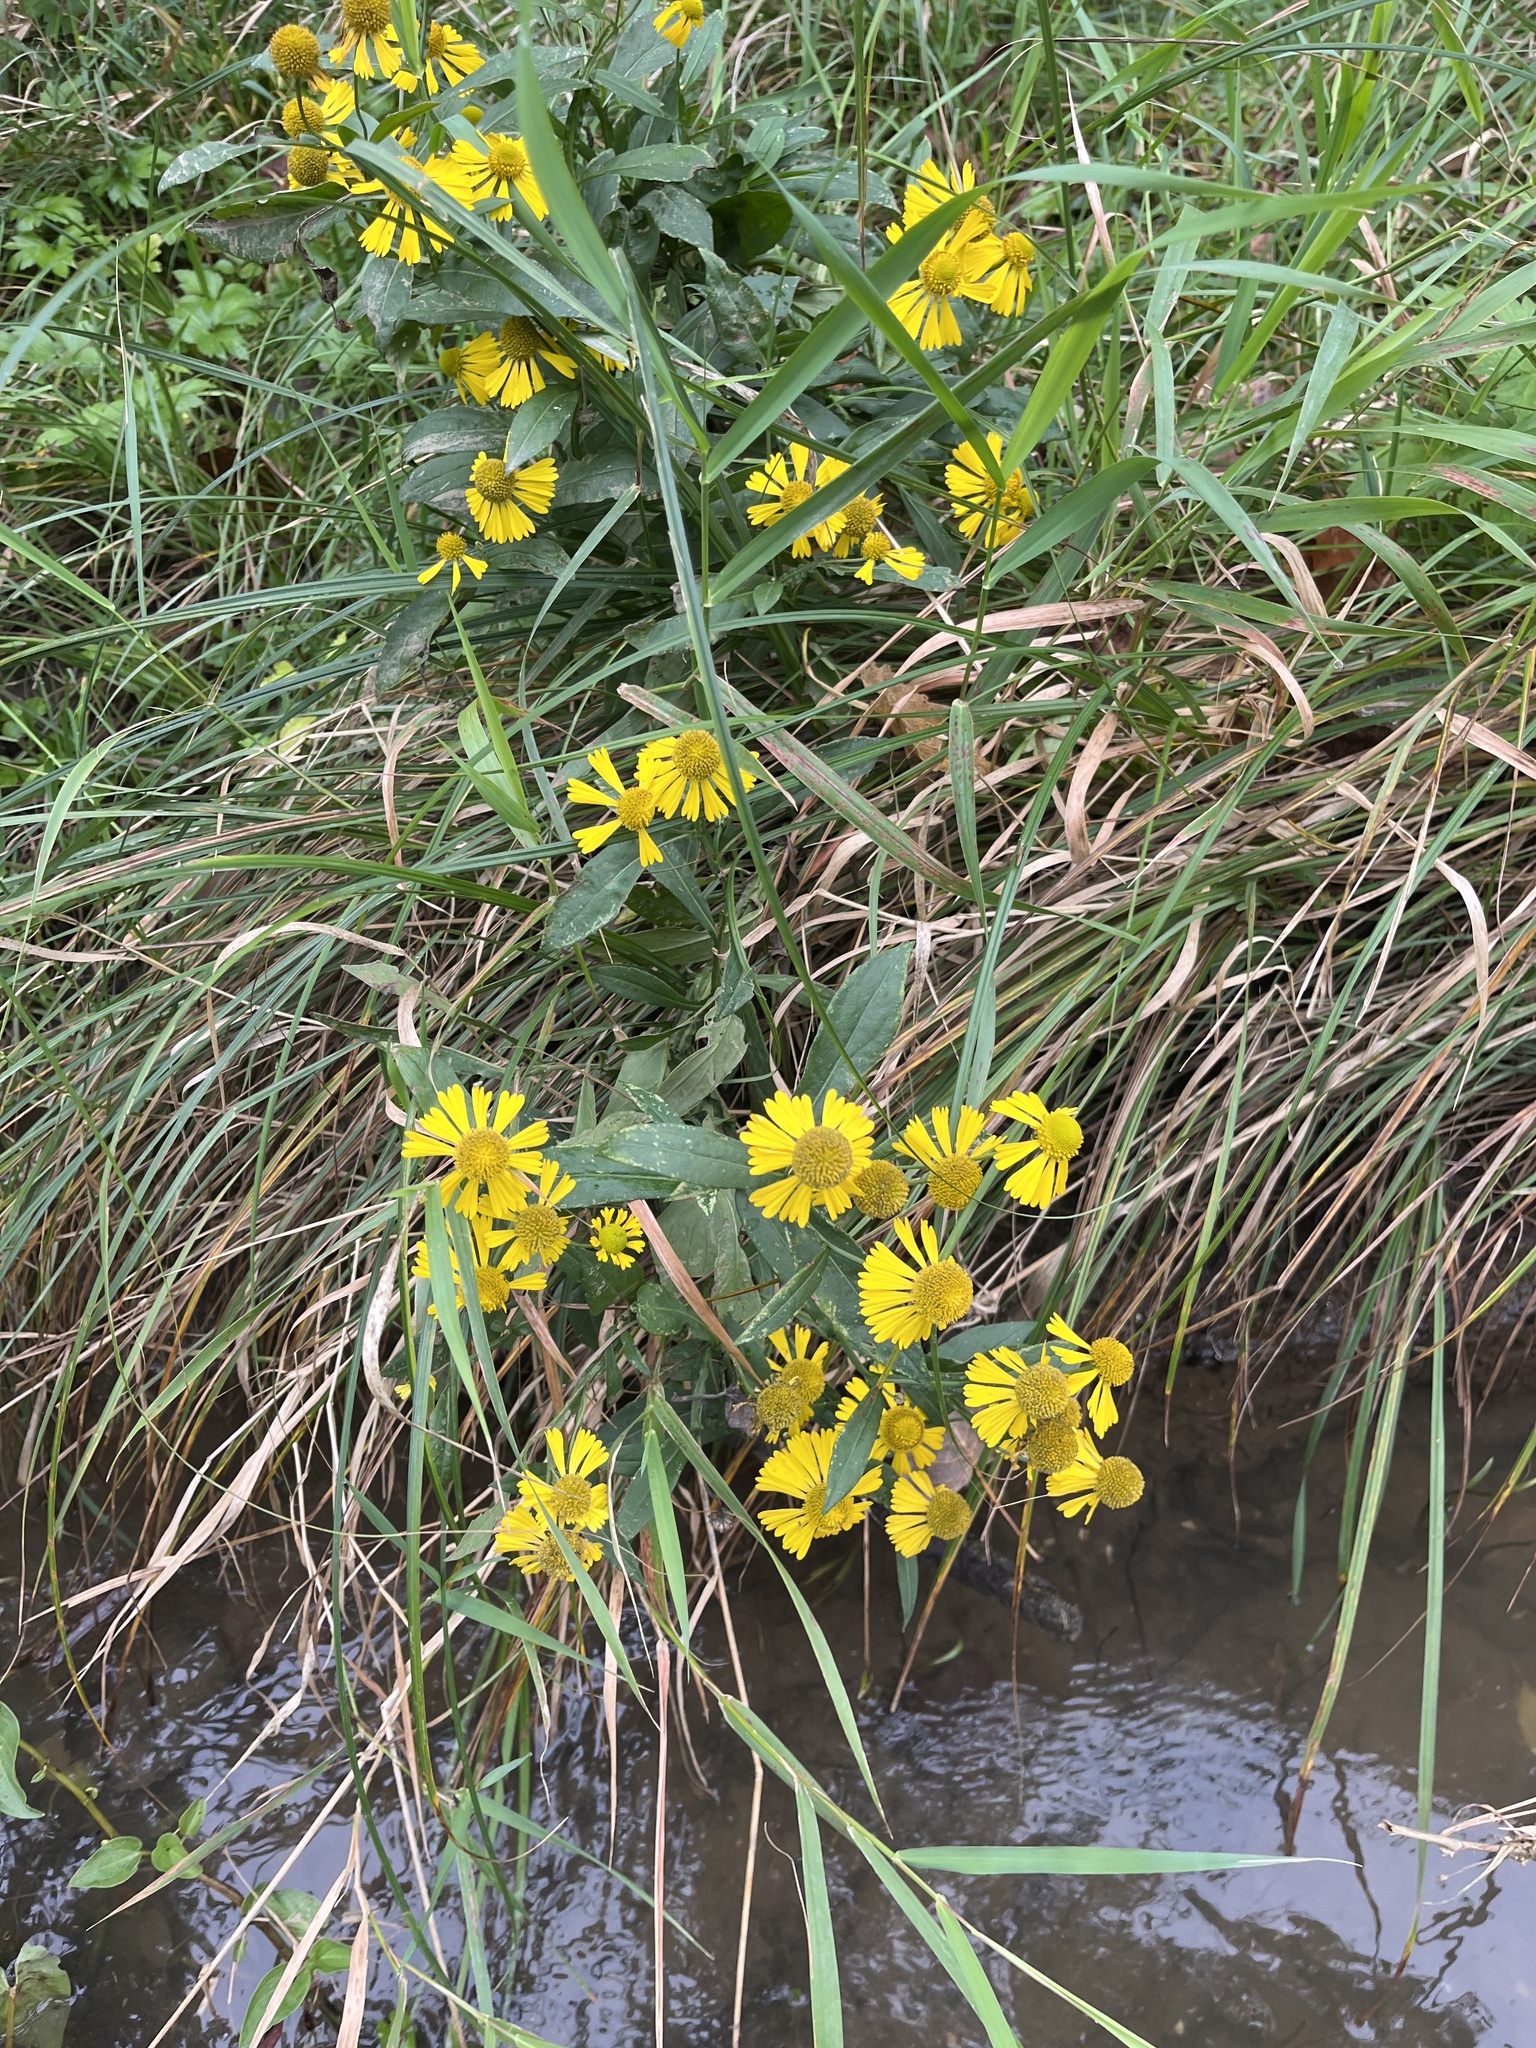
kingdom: Plantae
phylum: Tracheophyta
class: Magnoliopsida
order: Asterales
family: Asteraceae
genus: Helenium
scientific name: Helenium autumnale
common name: Sneezeweed
